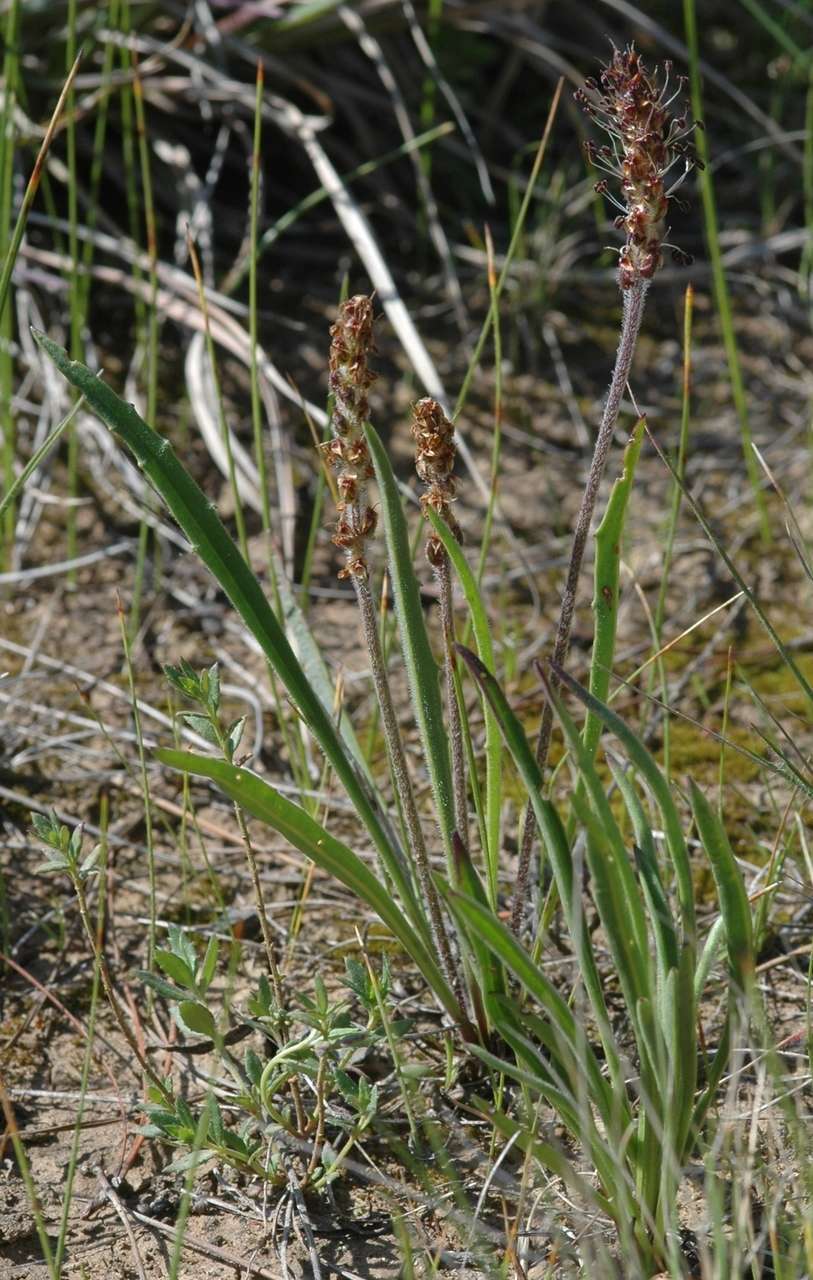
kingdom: Plantae
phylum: Tracheophyta
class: Magnoliopsida
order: Lamiales
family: Plantaginaceae
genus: Plantago
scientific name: Plantago gaudichaudii
